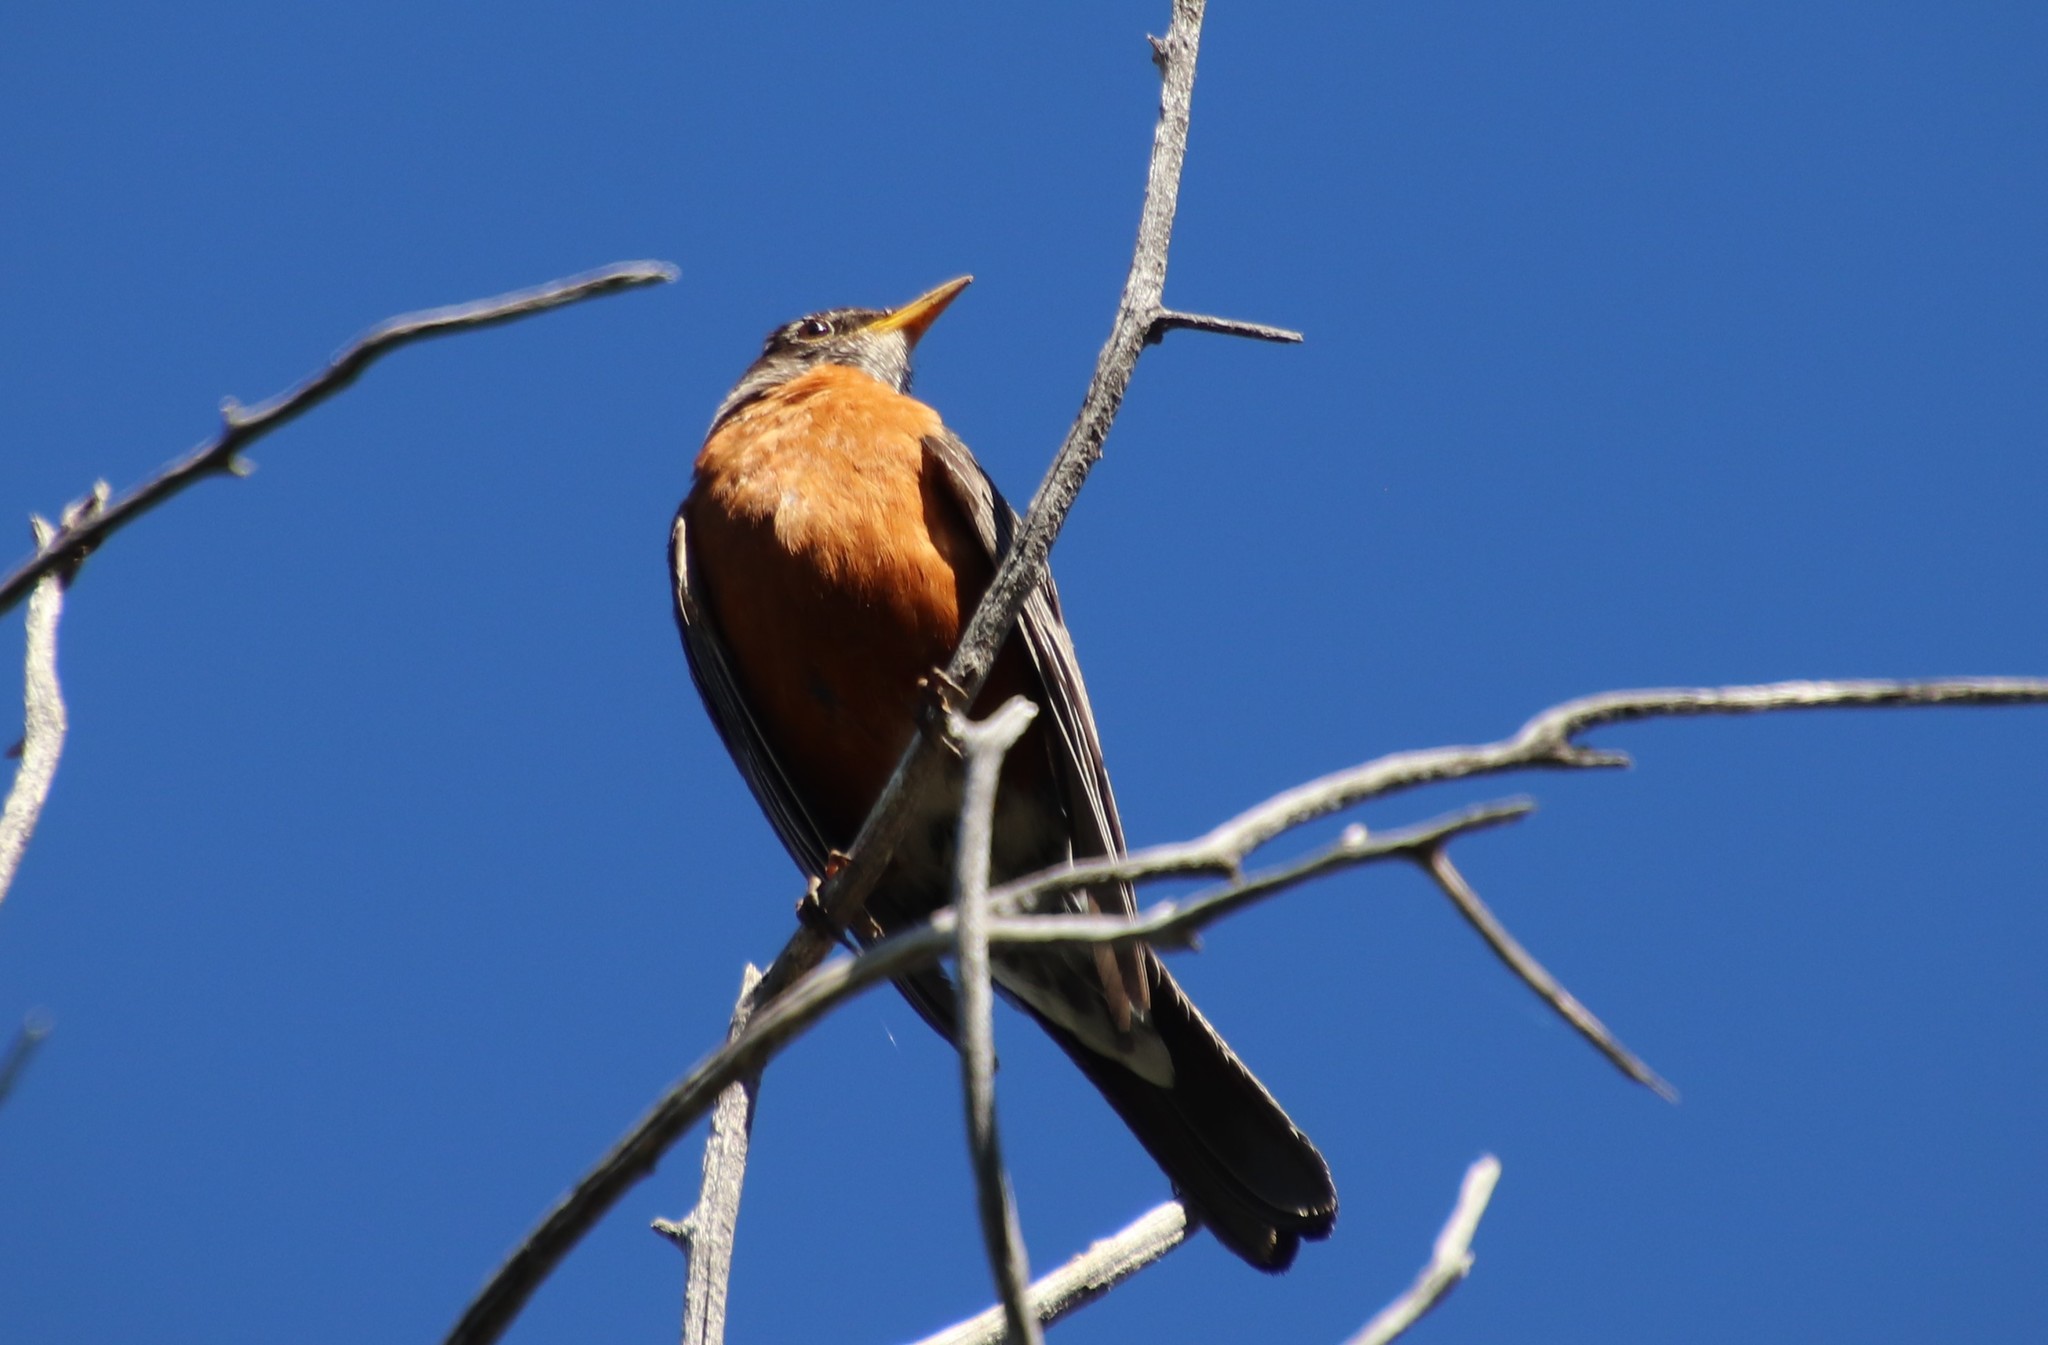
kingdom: Animalia
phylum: Chordata
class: Aves
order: Passeriformes
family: Turdidae
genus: Turdus
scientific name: Turdus migratorius
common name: American robin
